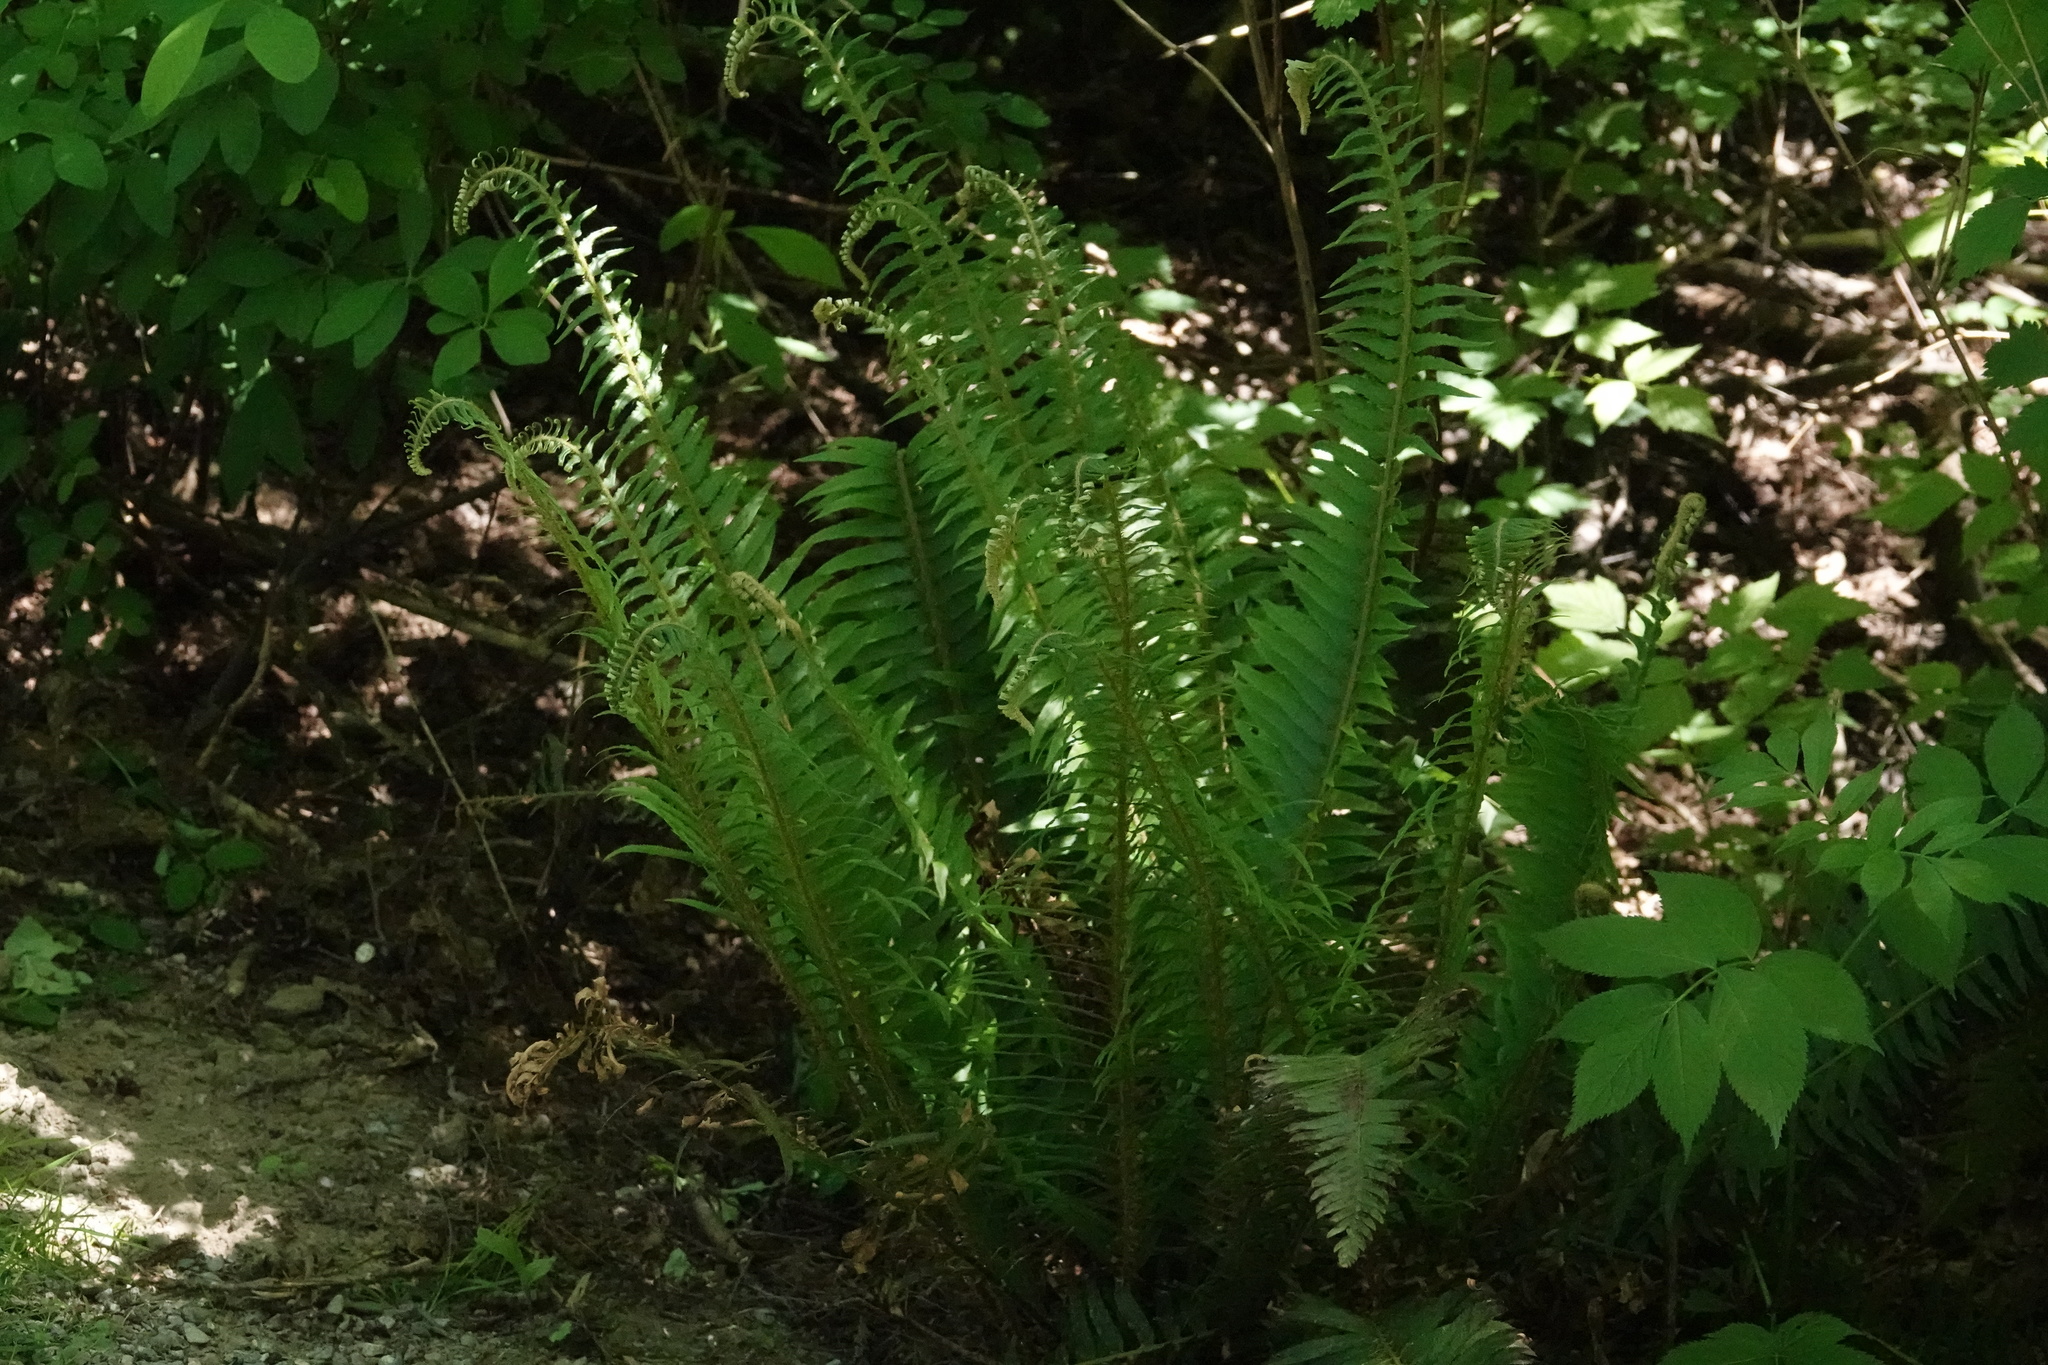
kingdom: Plantae
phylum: Tracheophyta
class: Polypodiopsida
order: Polypodiales
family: Dryopteridaceae
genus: Polystichum
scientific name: Polystichum munitum
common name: Western sword-fern
